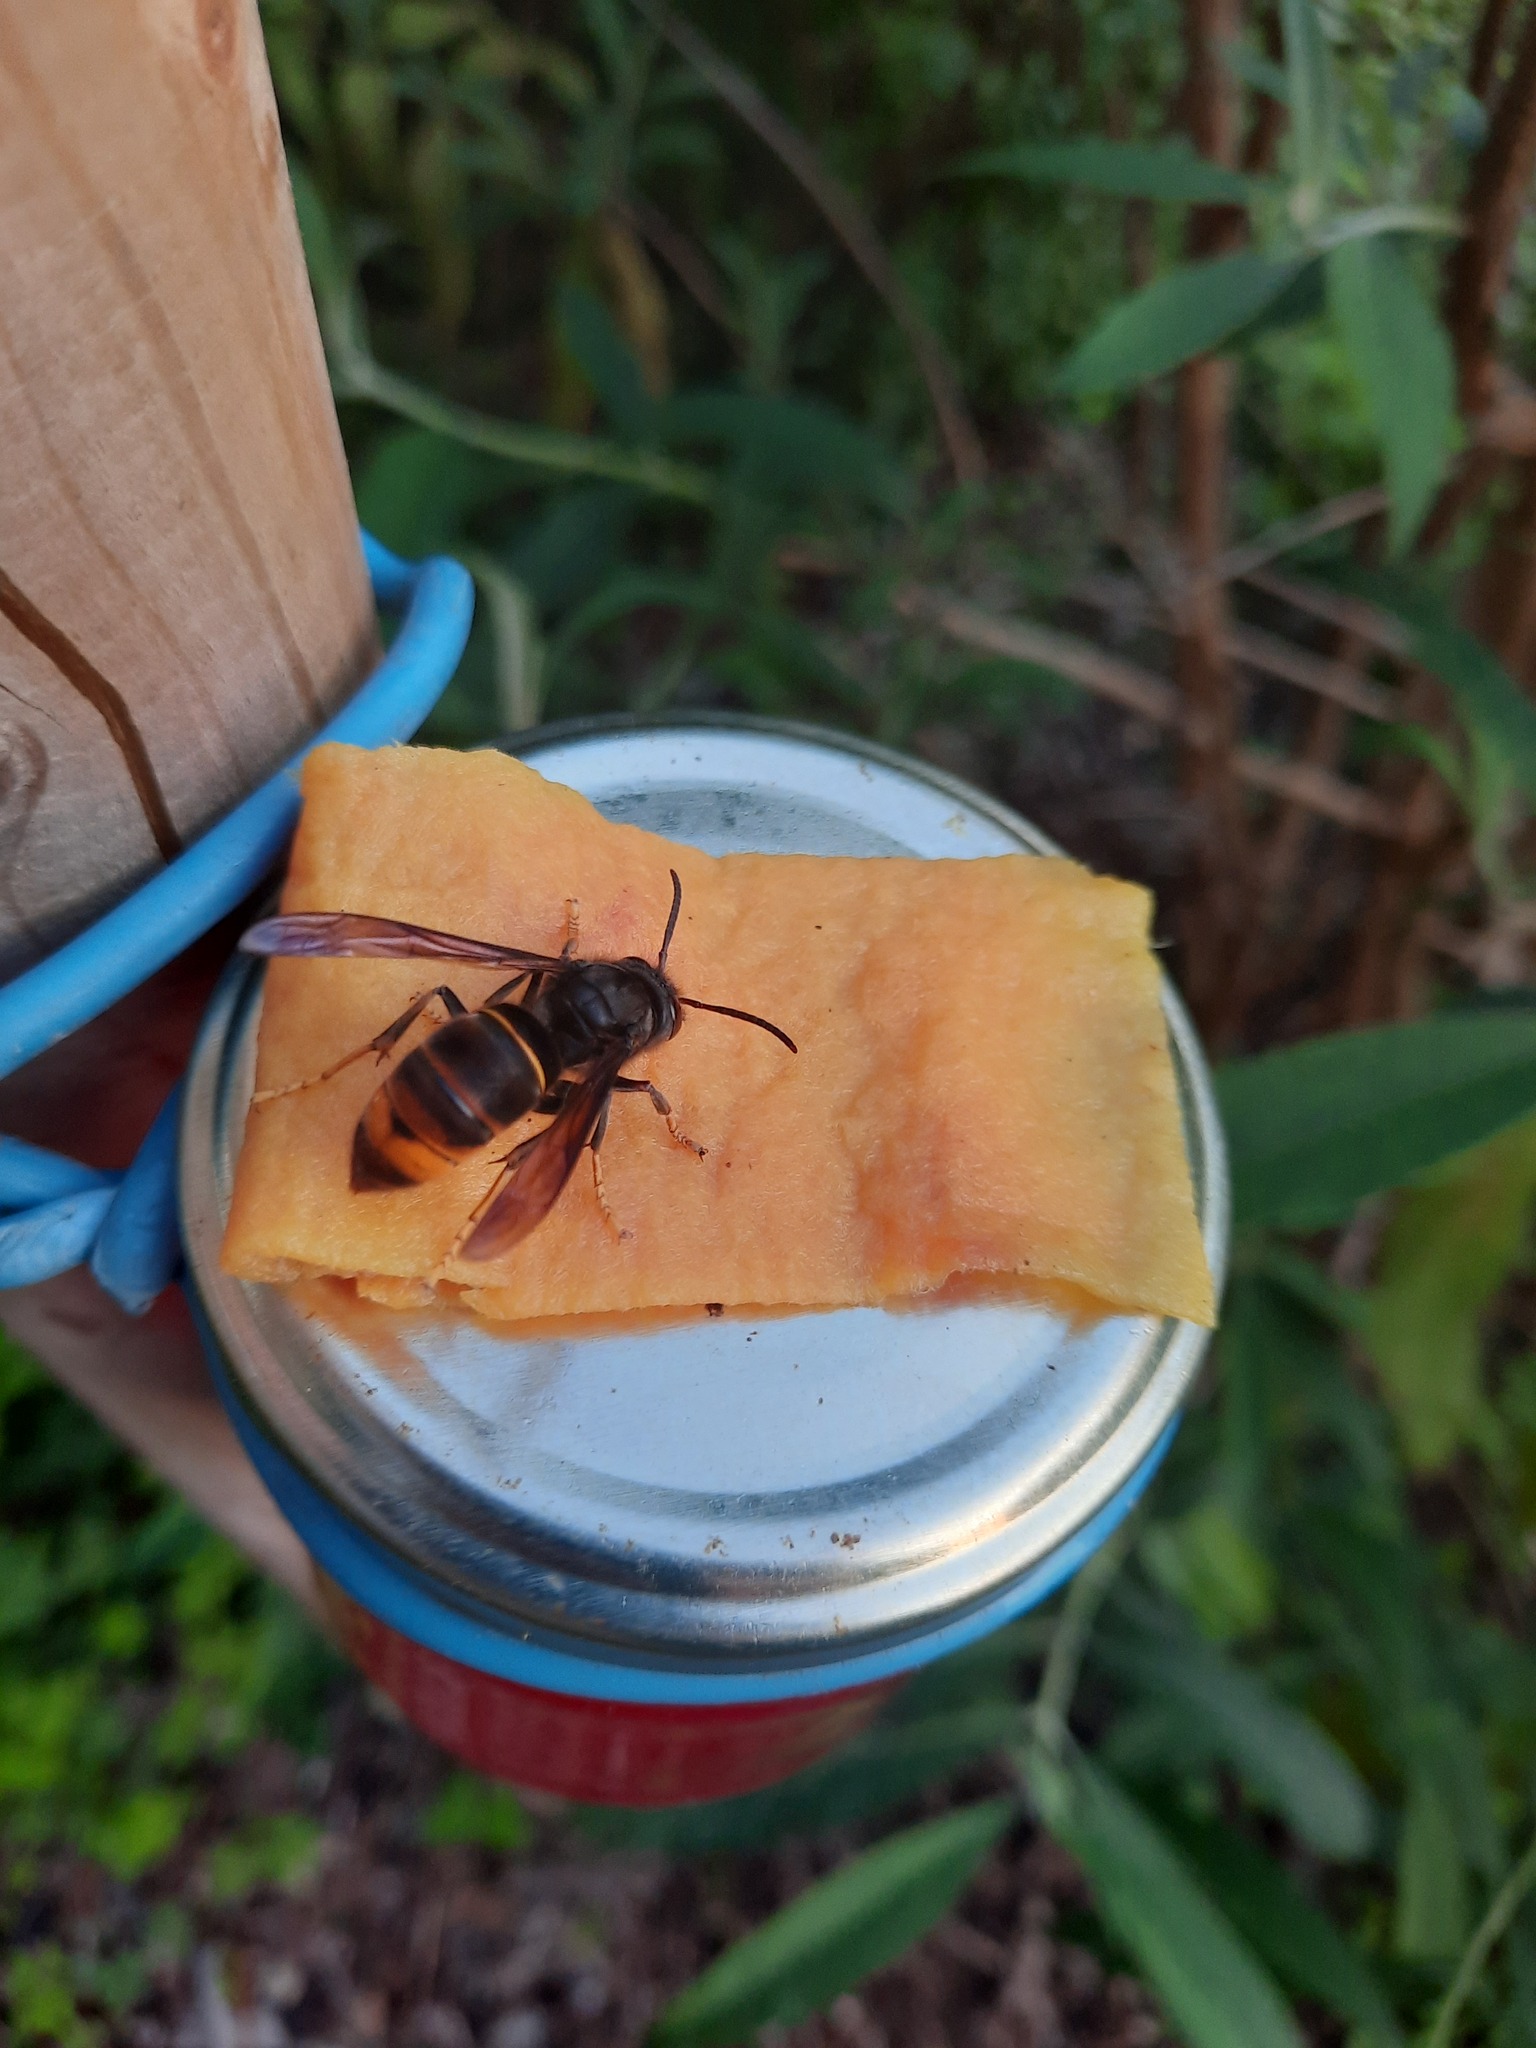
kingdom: Animalia
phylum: Arthropoda
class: Insecta
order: Hymenoptera
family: Vespidae
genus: Vespa
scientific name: Vespa velutina
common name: Asian hornet
